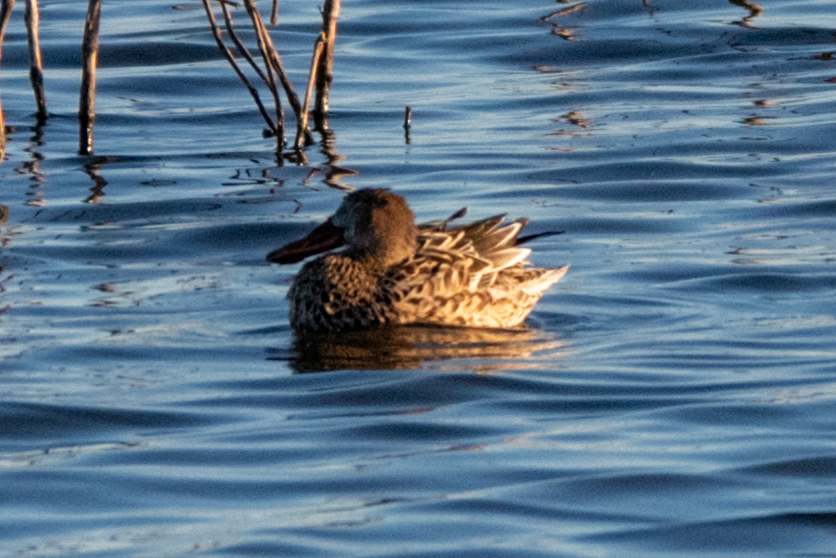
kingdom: Animalia
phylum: Chordata
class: Aves
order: Anseriformes
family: Anatidae
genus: Spatula
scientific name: Spatula clypeata
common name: Northern shoveler
